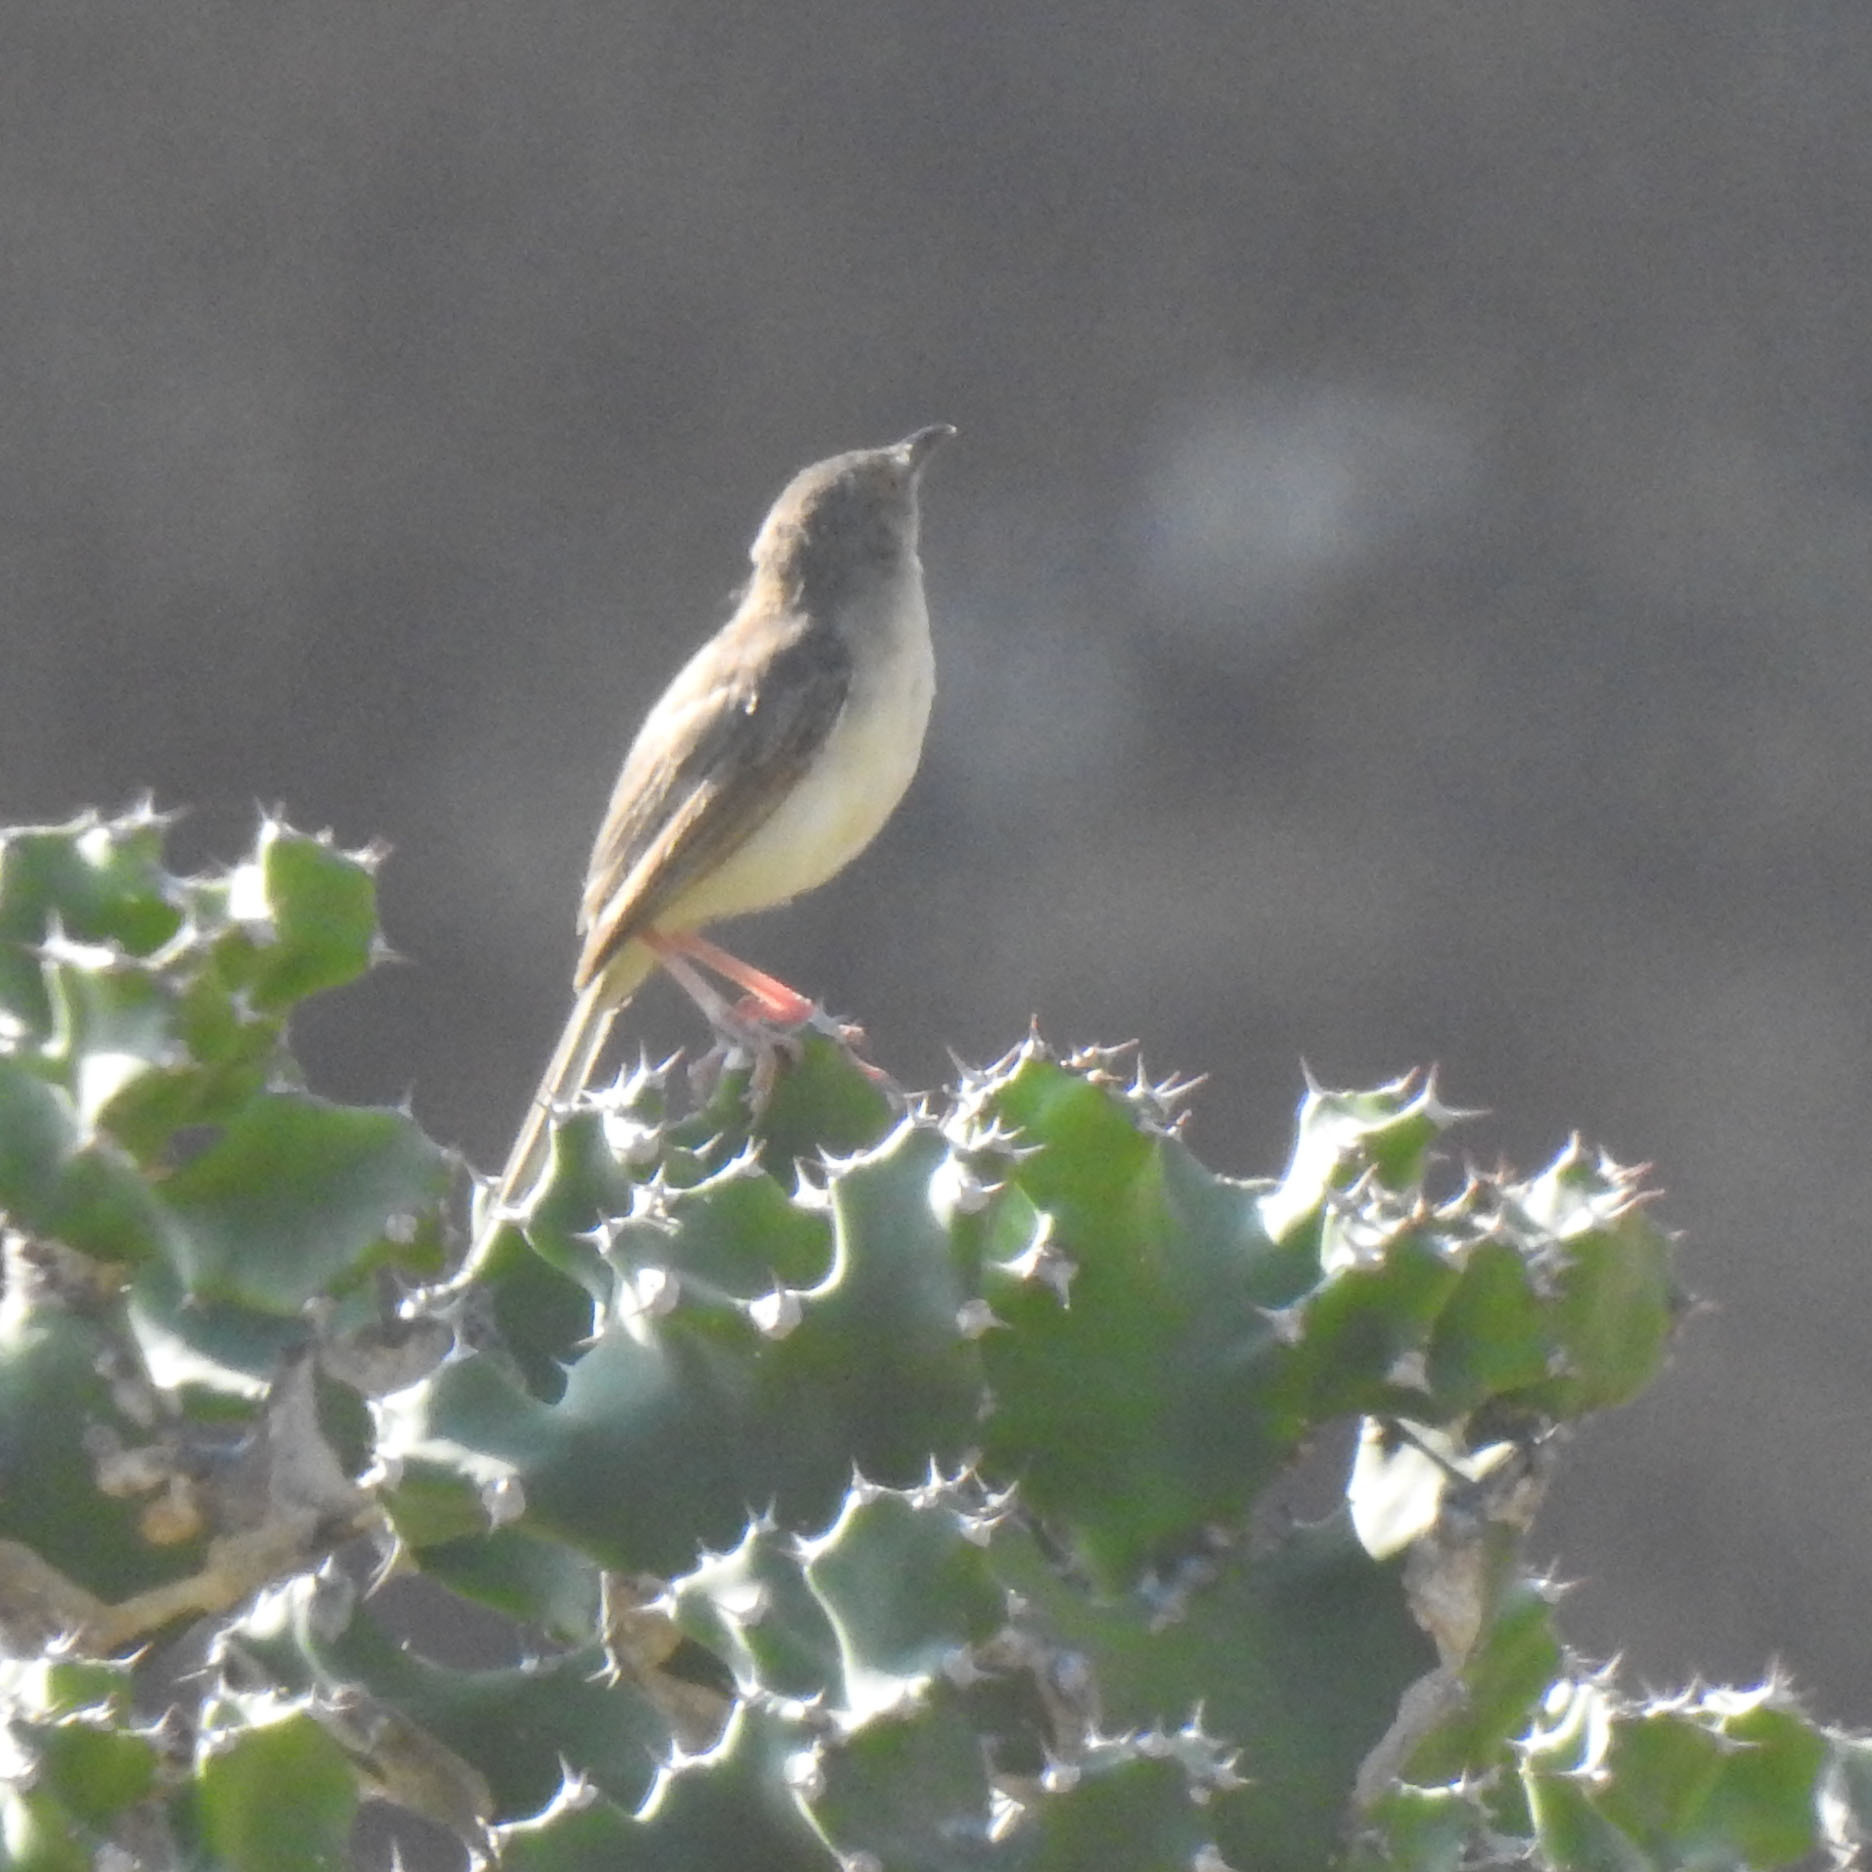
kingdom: Animalia
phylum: Chordata
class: Aves
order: Passeriformes
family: Cisticolidae
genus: Prinia
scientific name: Prinia sylvatica
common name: Jungle prinia
